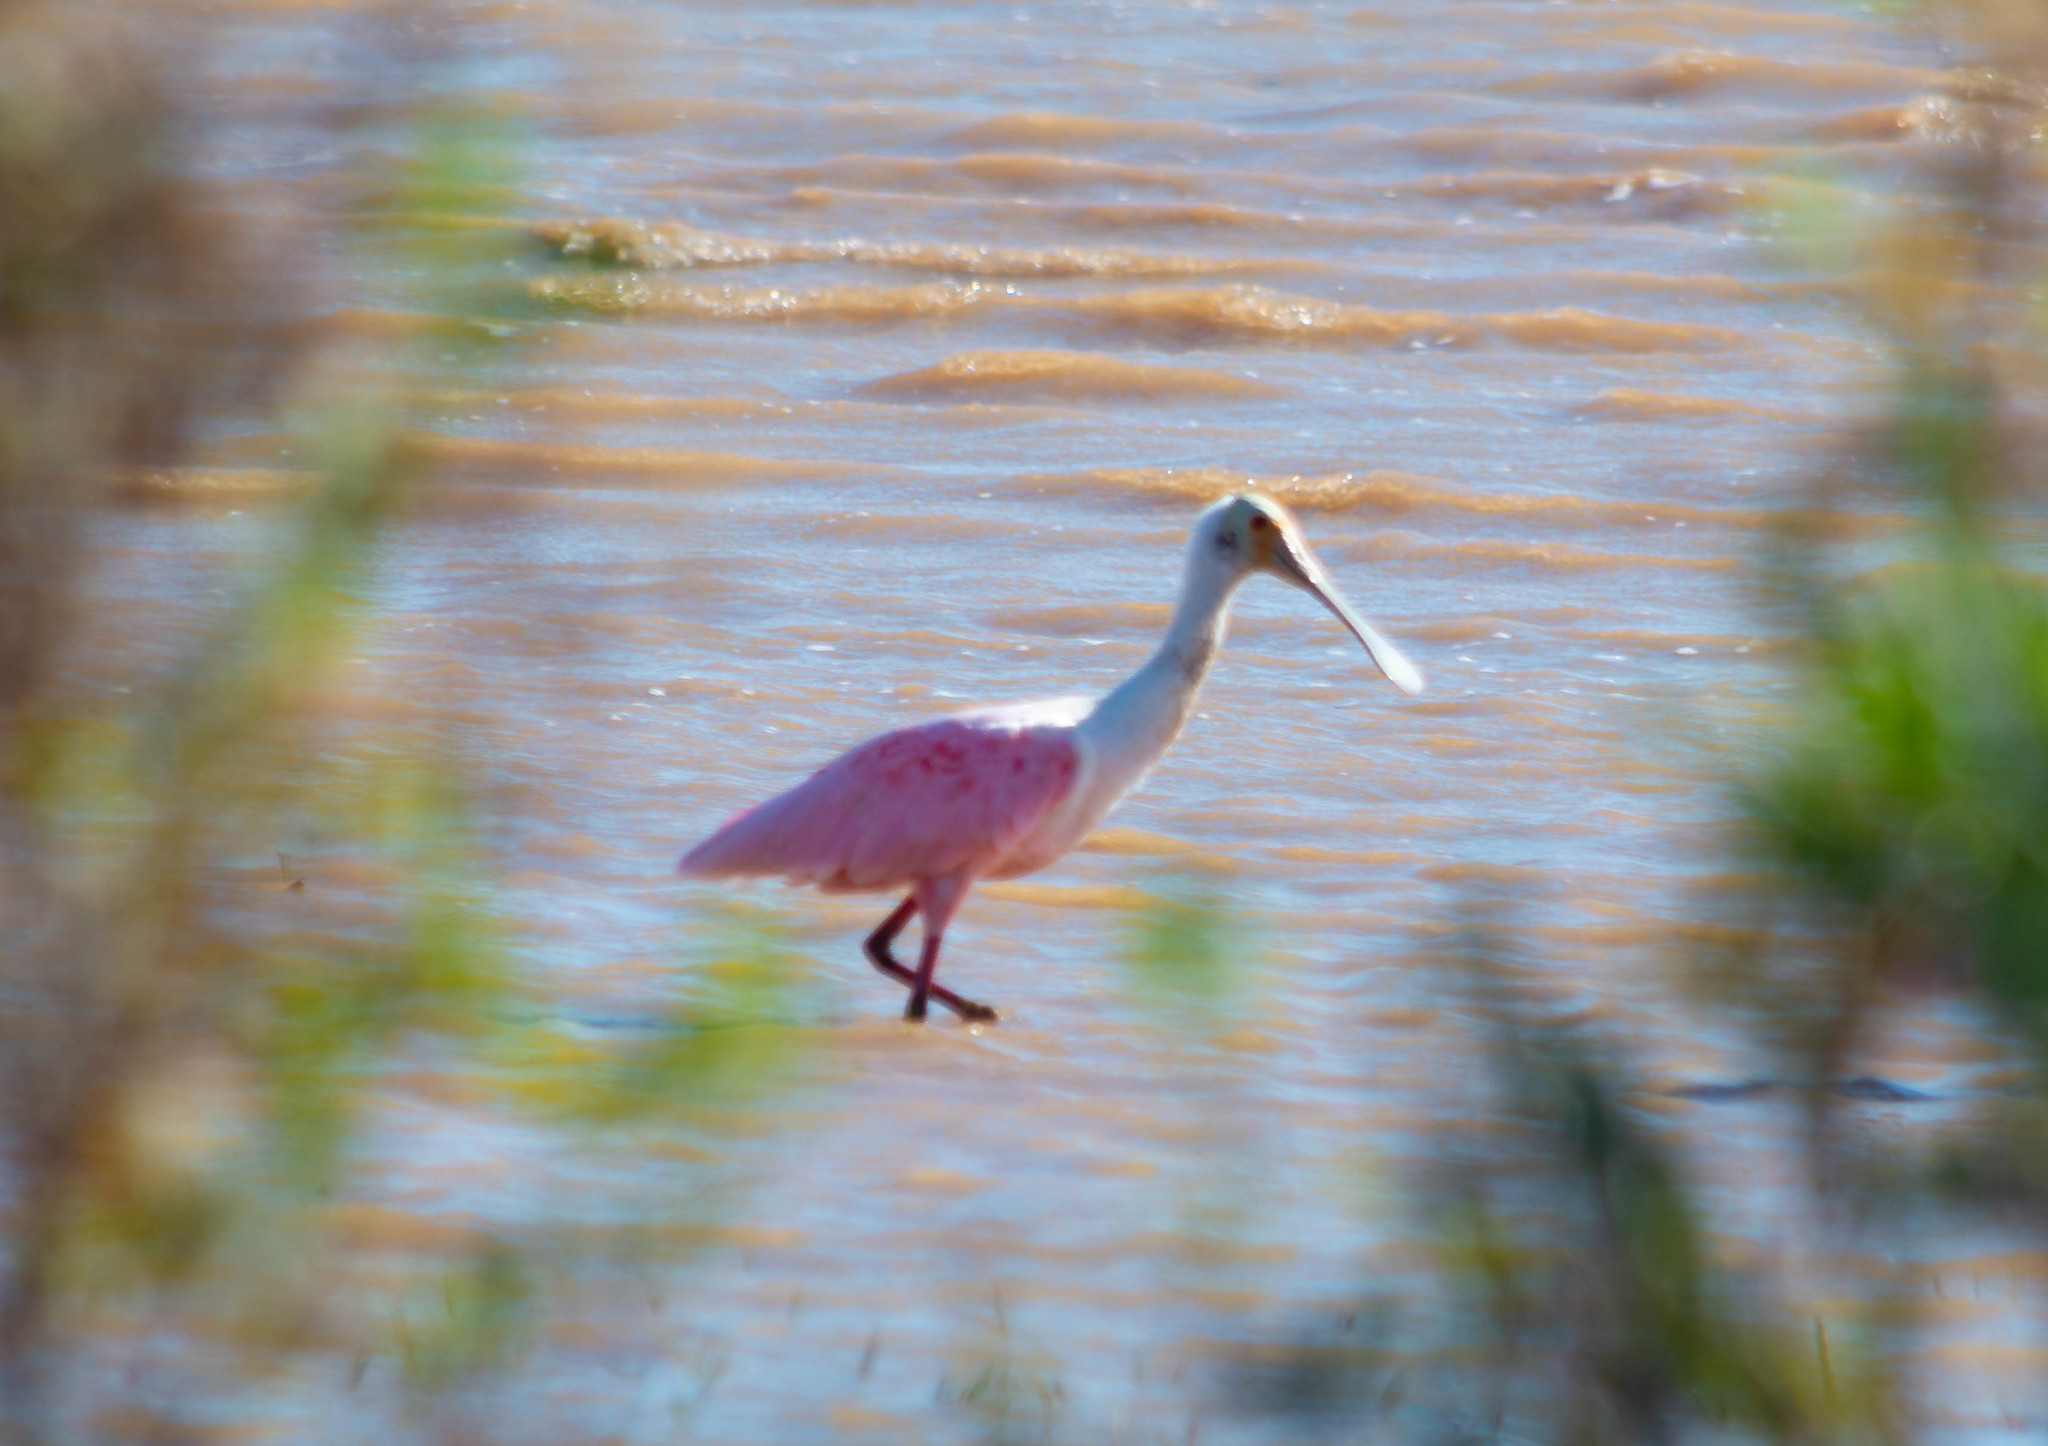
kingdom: Animalia
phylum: Chordata
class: Aves
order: Pelecaniformes
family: Threskiornithidae
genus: Platalea
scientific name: Platalea ajaja
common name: Roseate spoonbill
